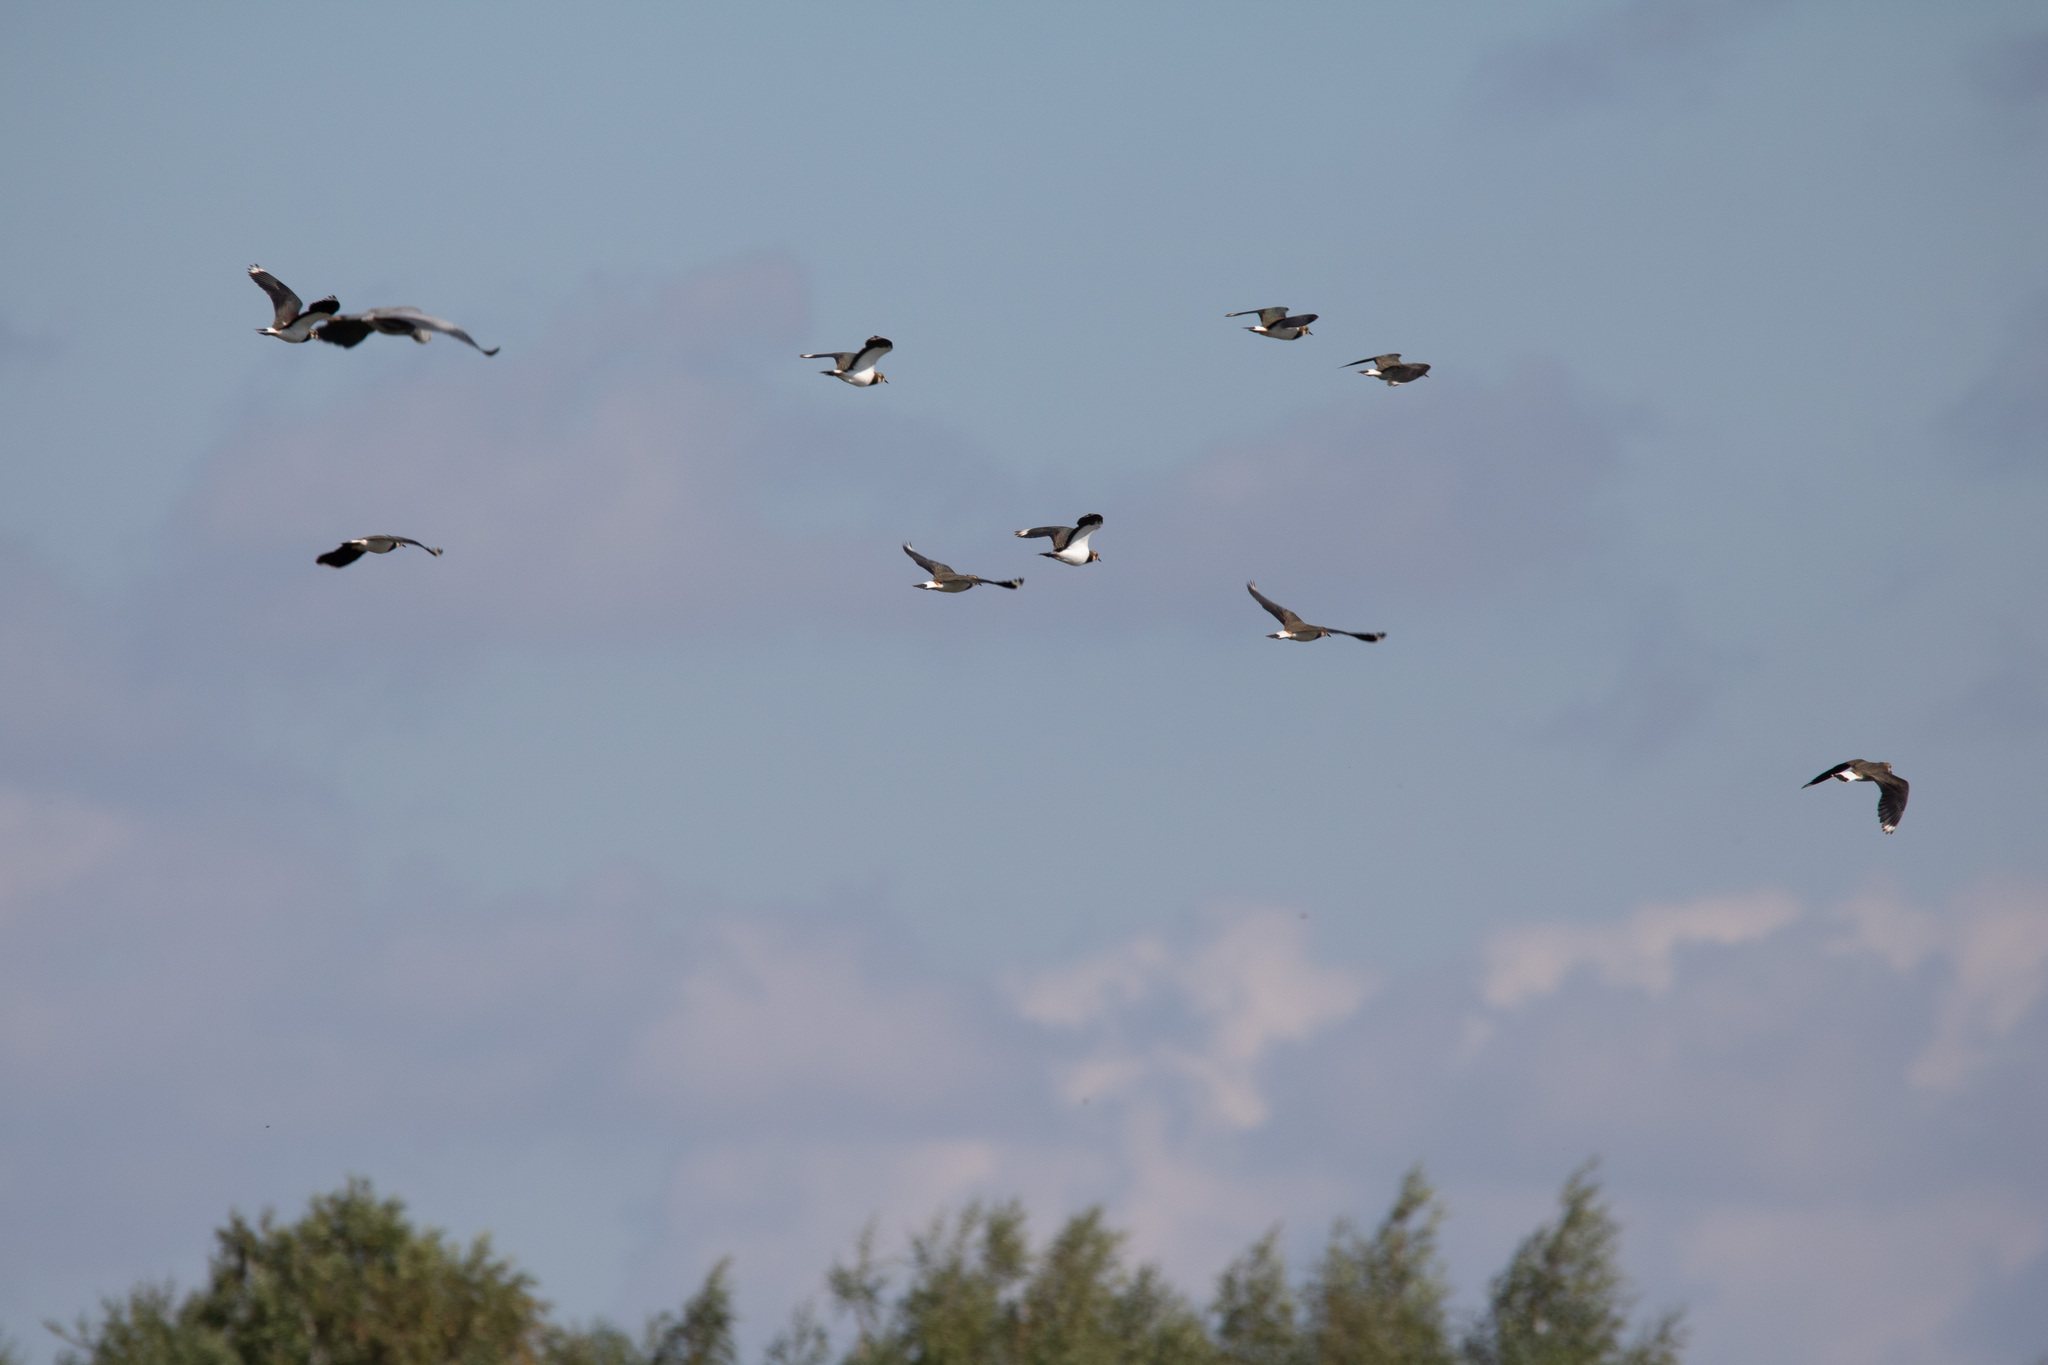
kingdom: Animalia
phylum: Chordata
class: Aves
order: Charadriiformes
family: Charadriidae
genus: Vanellus
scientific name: Vanellus vanellus
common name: Northern lapwing
